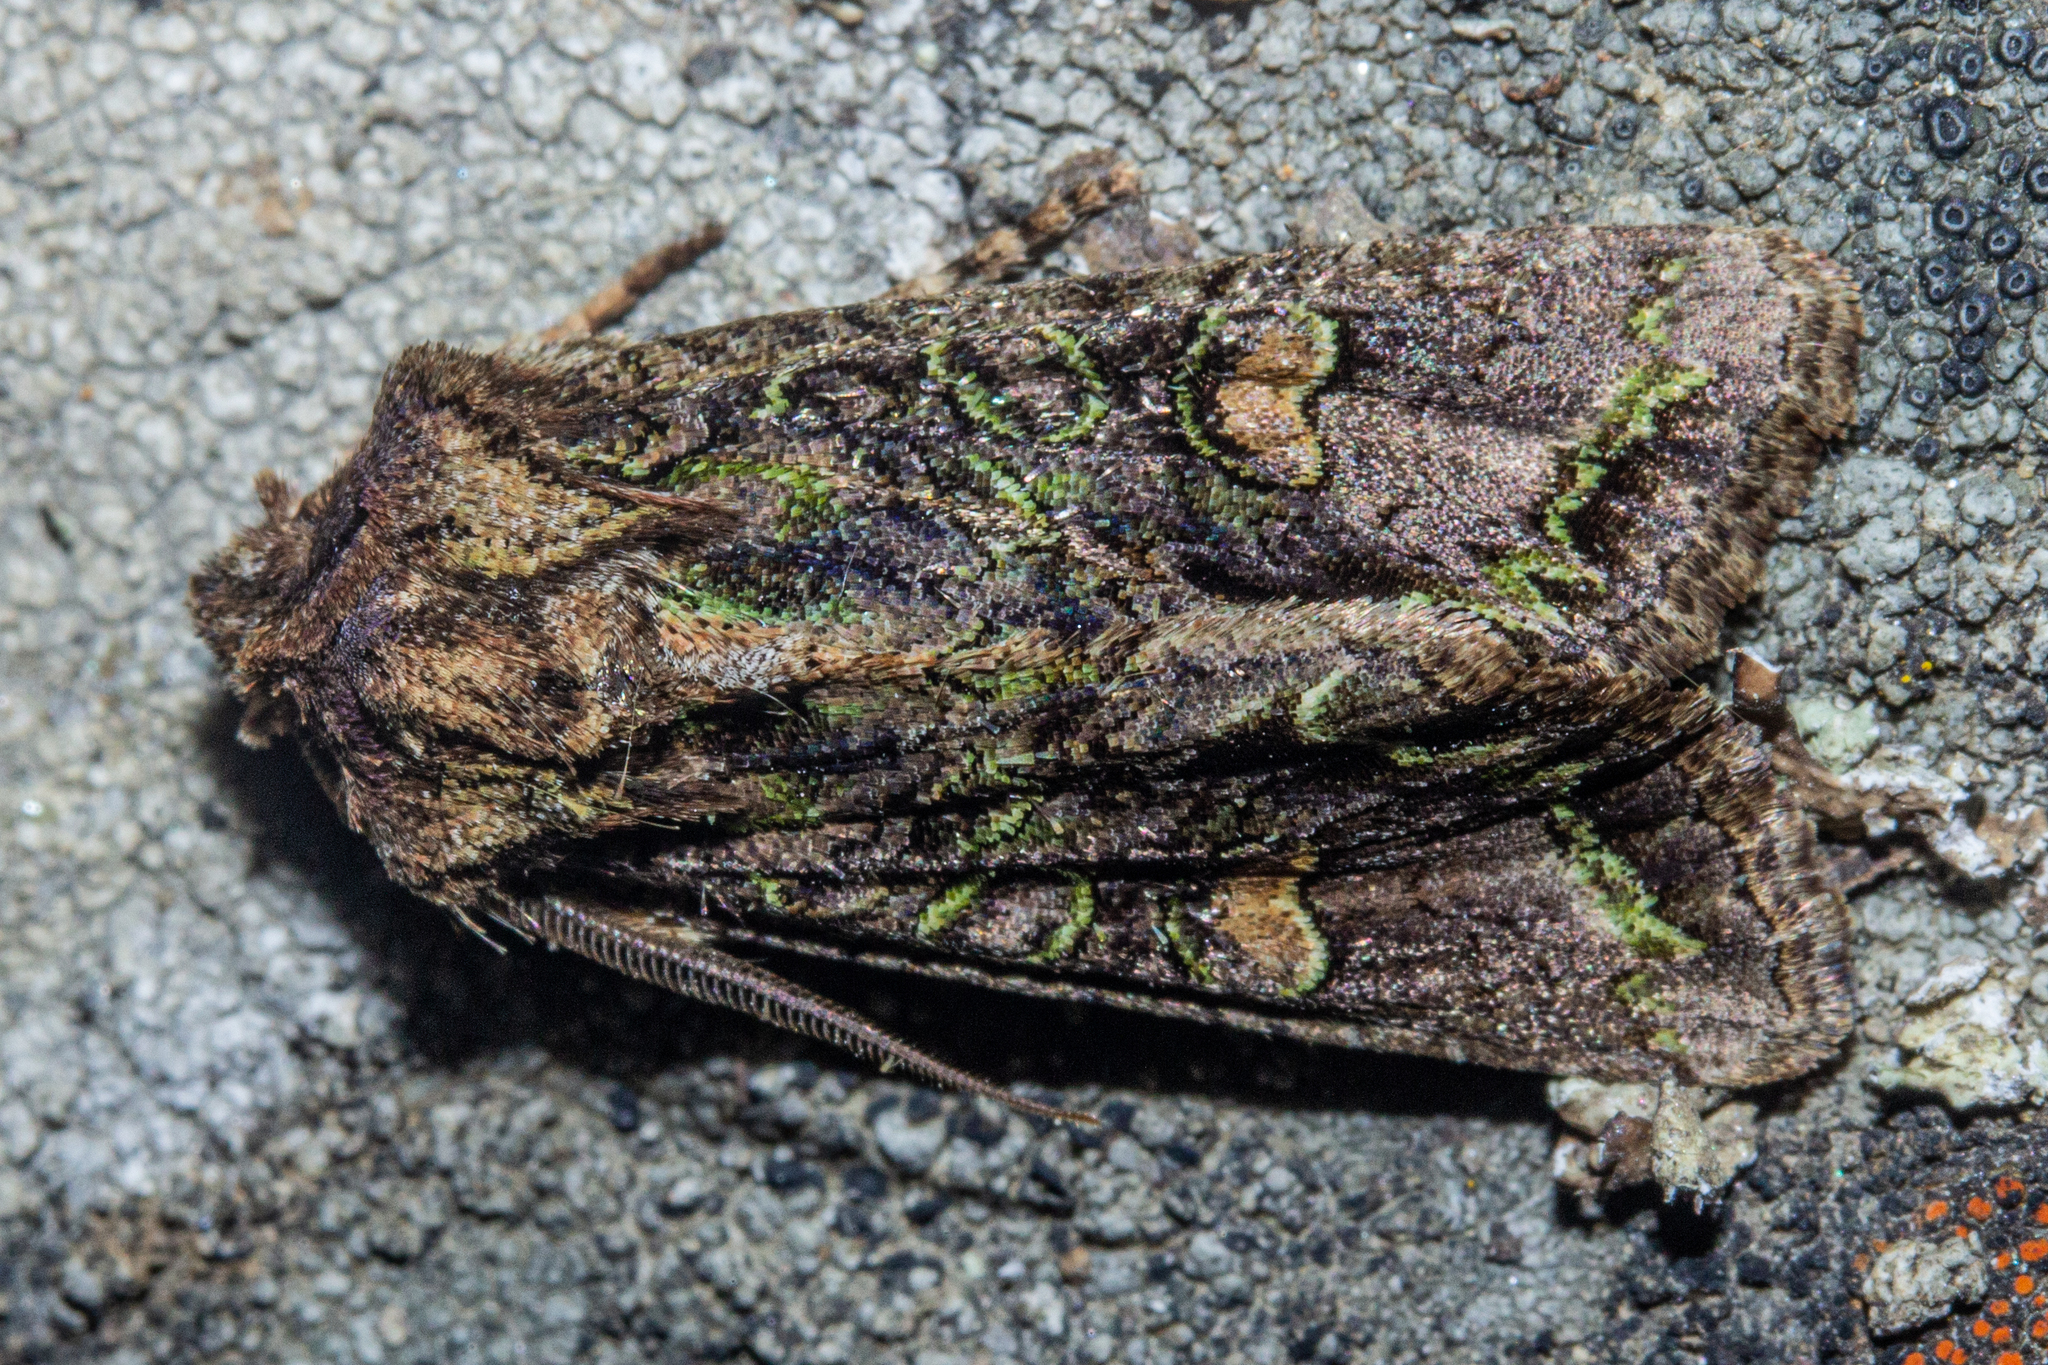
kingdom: Animalia
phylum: Arthropoda
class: Insecta
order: Lepidoptera
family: Noctuidae
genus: Ichneutica
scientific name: Ichneutica skelloni
